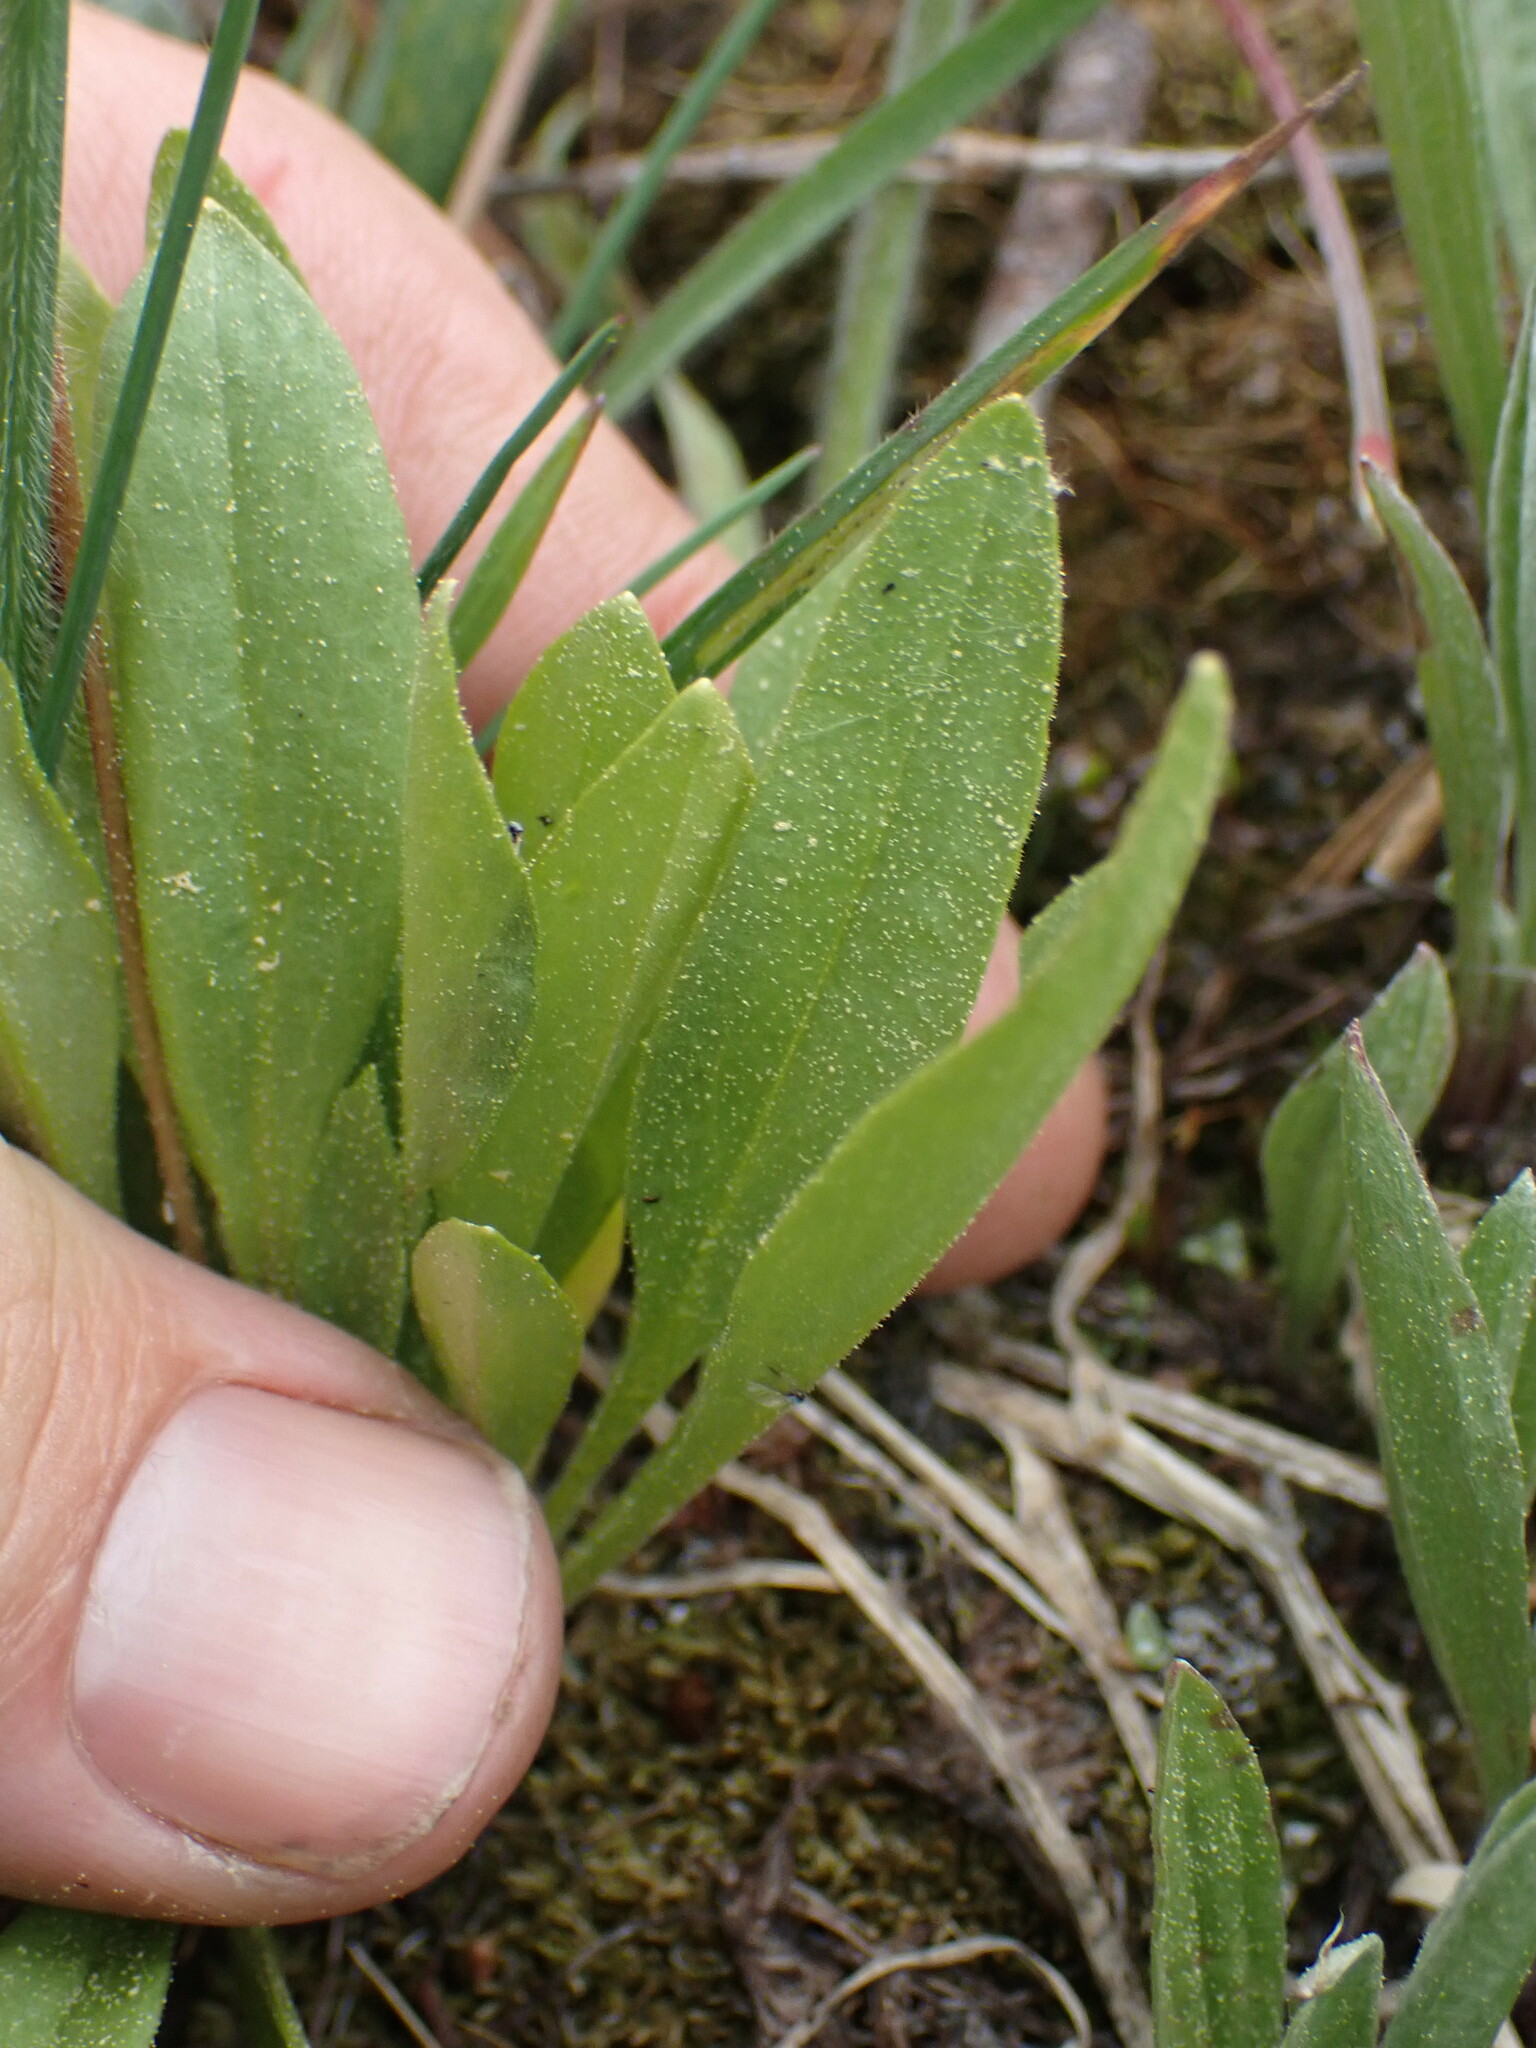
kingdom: Plantae
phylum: Tracheophyta
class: Magnoliopsida
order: Ericales
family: Primulaceae
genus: Dodecatheon
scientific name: Dodecatheon pulchellum
